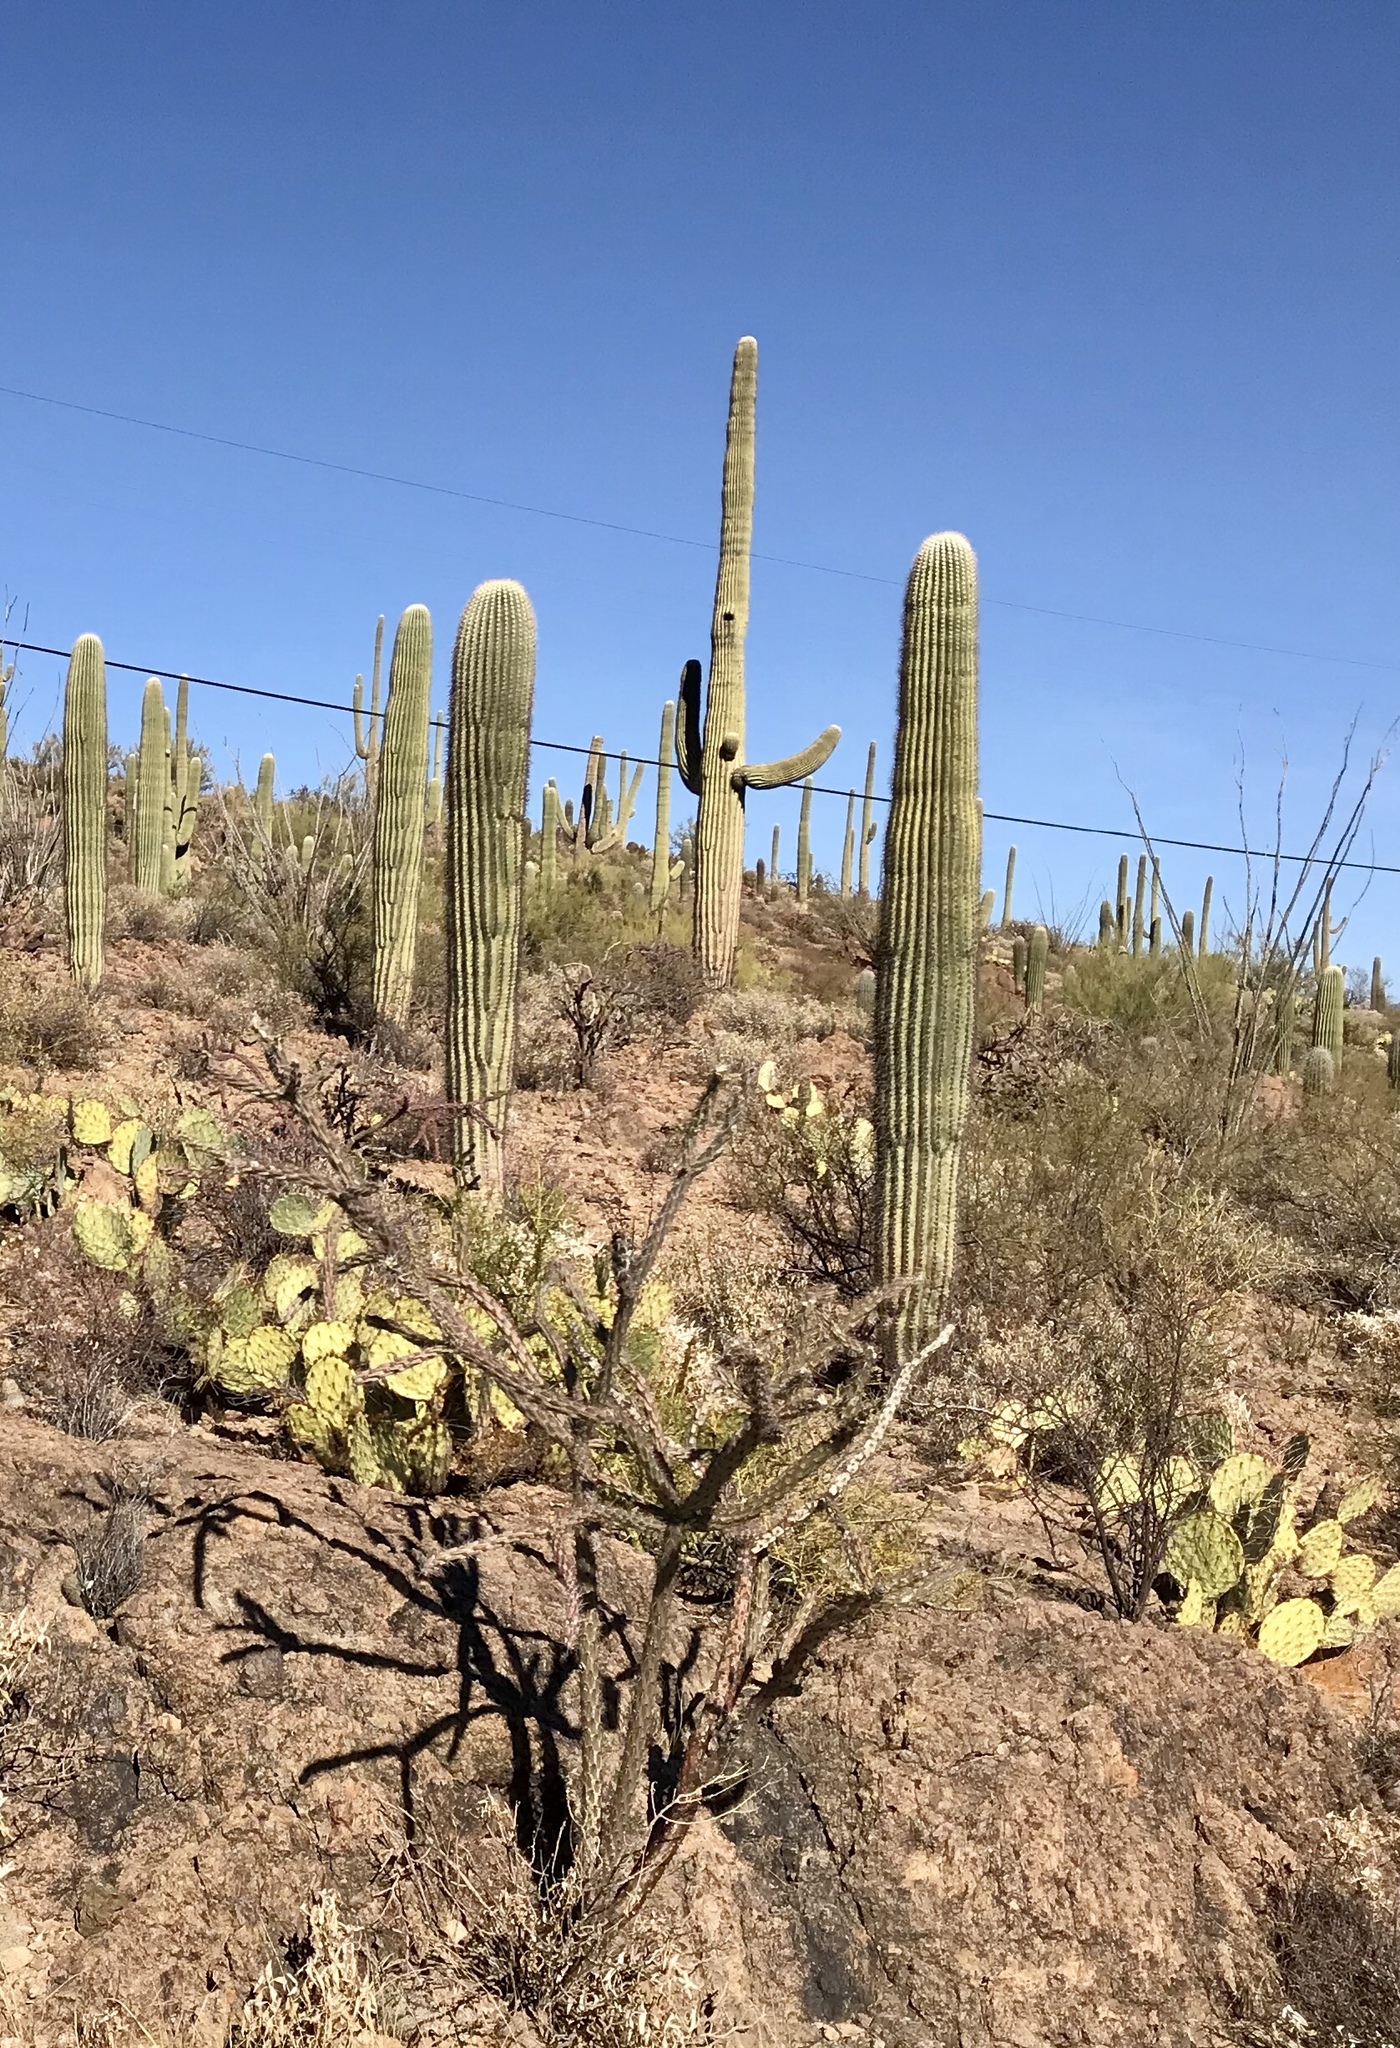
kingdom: Plantae
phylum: Tracheophyta
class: Magnoliopsida
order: Caryophyllales
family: Cactaceae
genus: Carnegiea
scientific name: Carnegiea gigantea
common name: Saguaro
